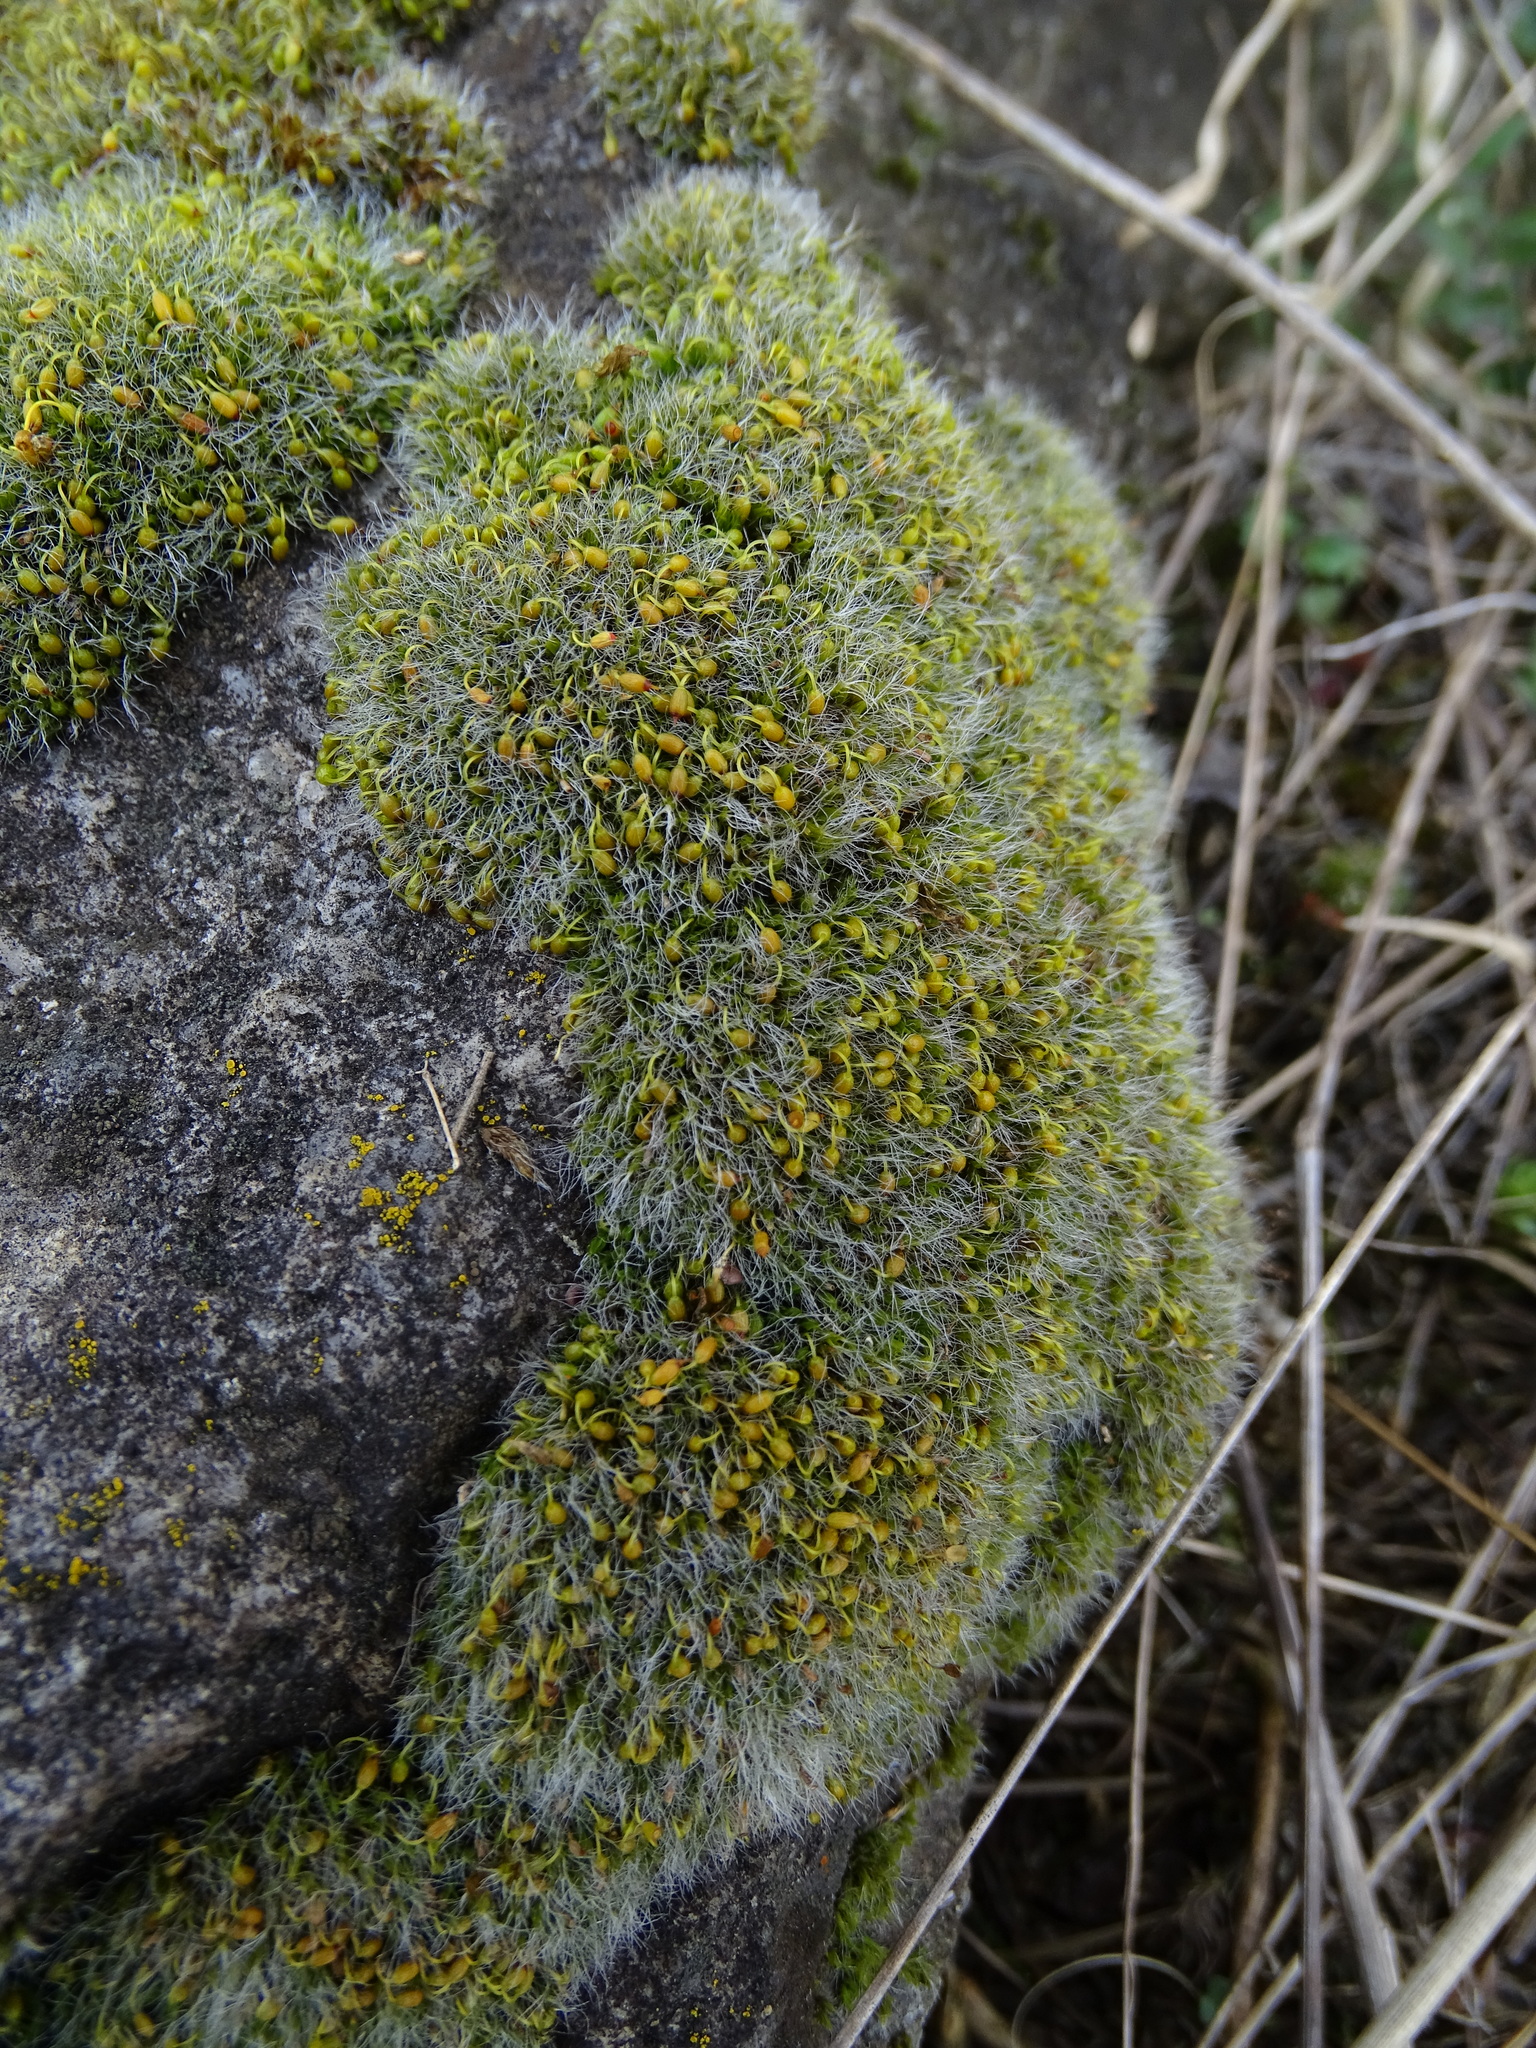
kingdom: Plantae
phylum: Bryophyta
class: Bryopsida
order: Grimmiales
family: Grimmiaceae
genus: Grimmia
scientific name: Grimmia pulvinata
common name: Grey-cushioned grimmia
